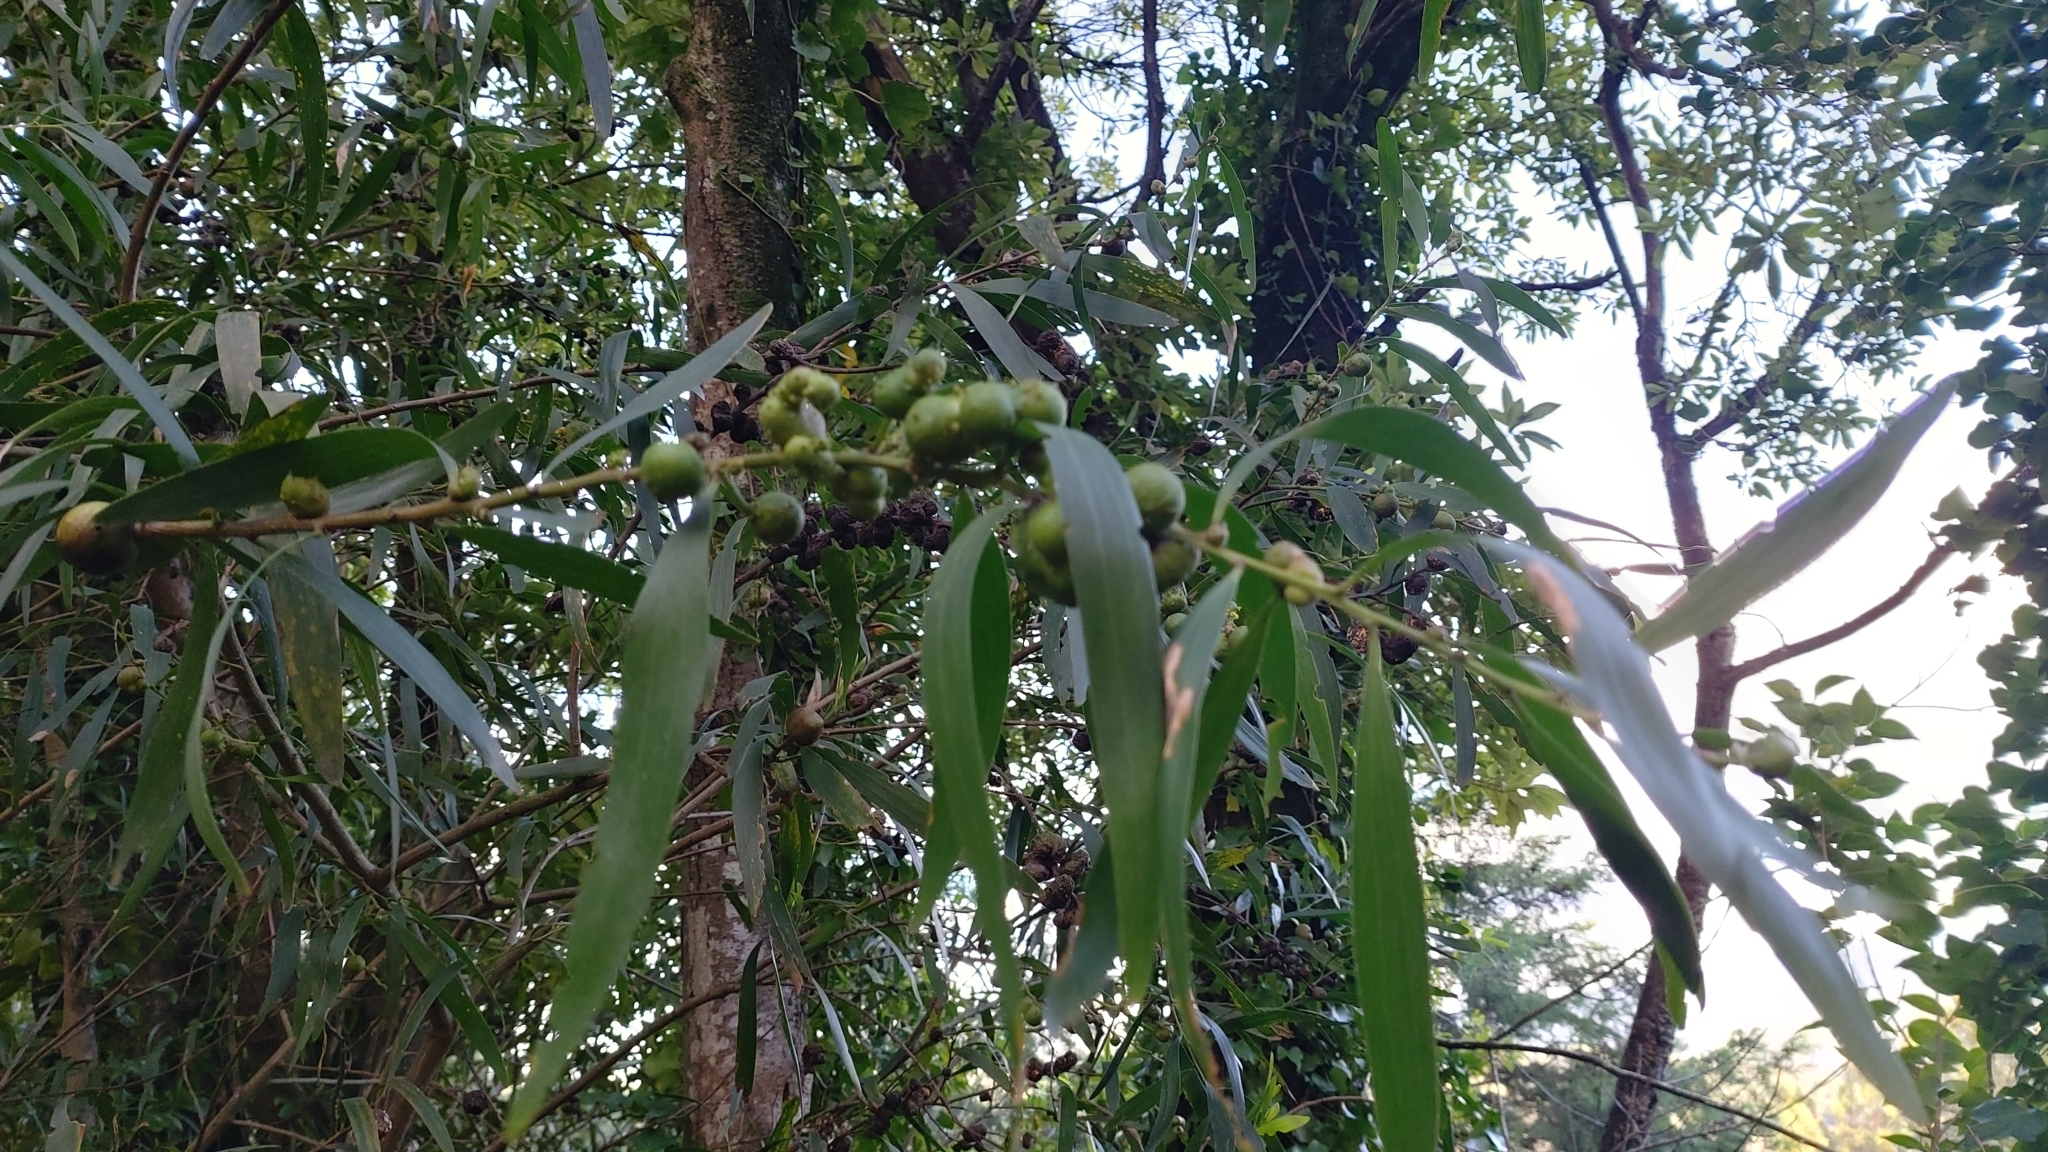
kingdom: Animalia
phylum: Arthropoda
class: Insecta
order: Hymenoptera
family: Pteromalidae
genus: Trichilogaster
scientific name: Trichilogaster acaciaelongifoliae
